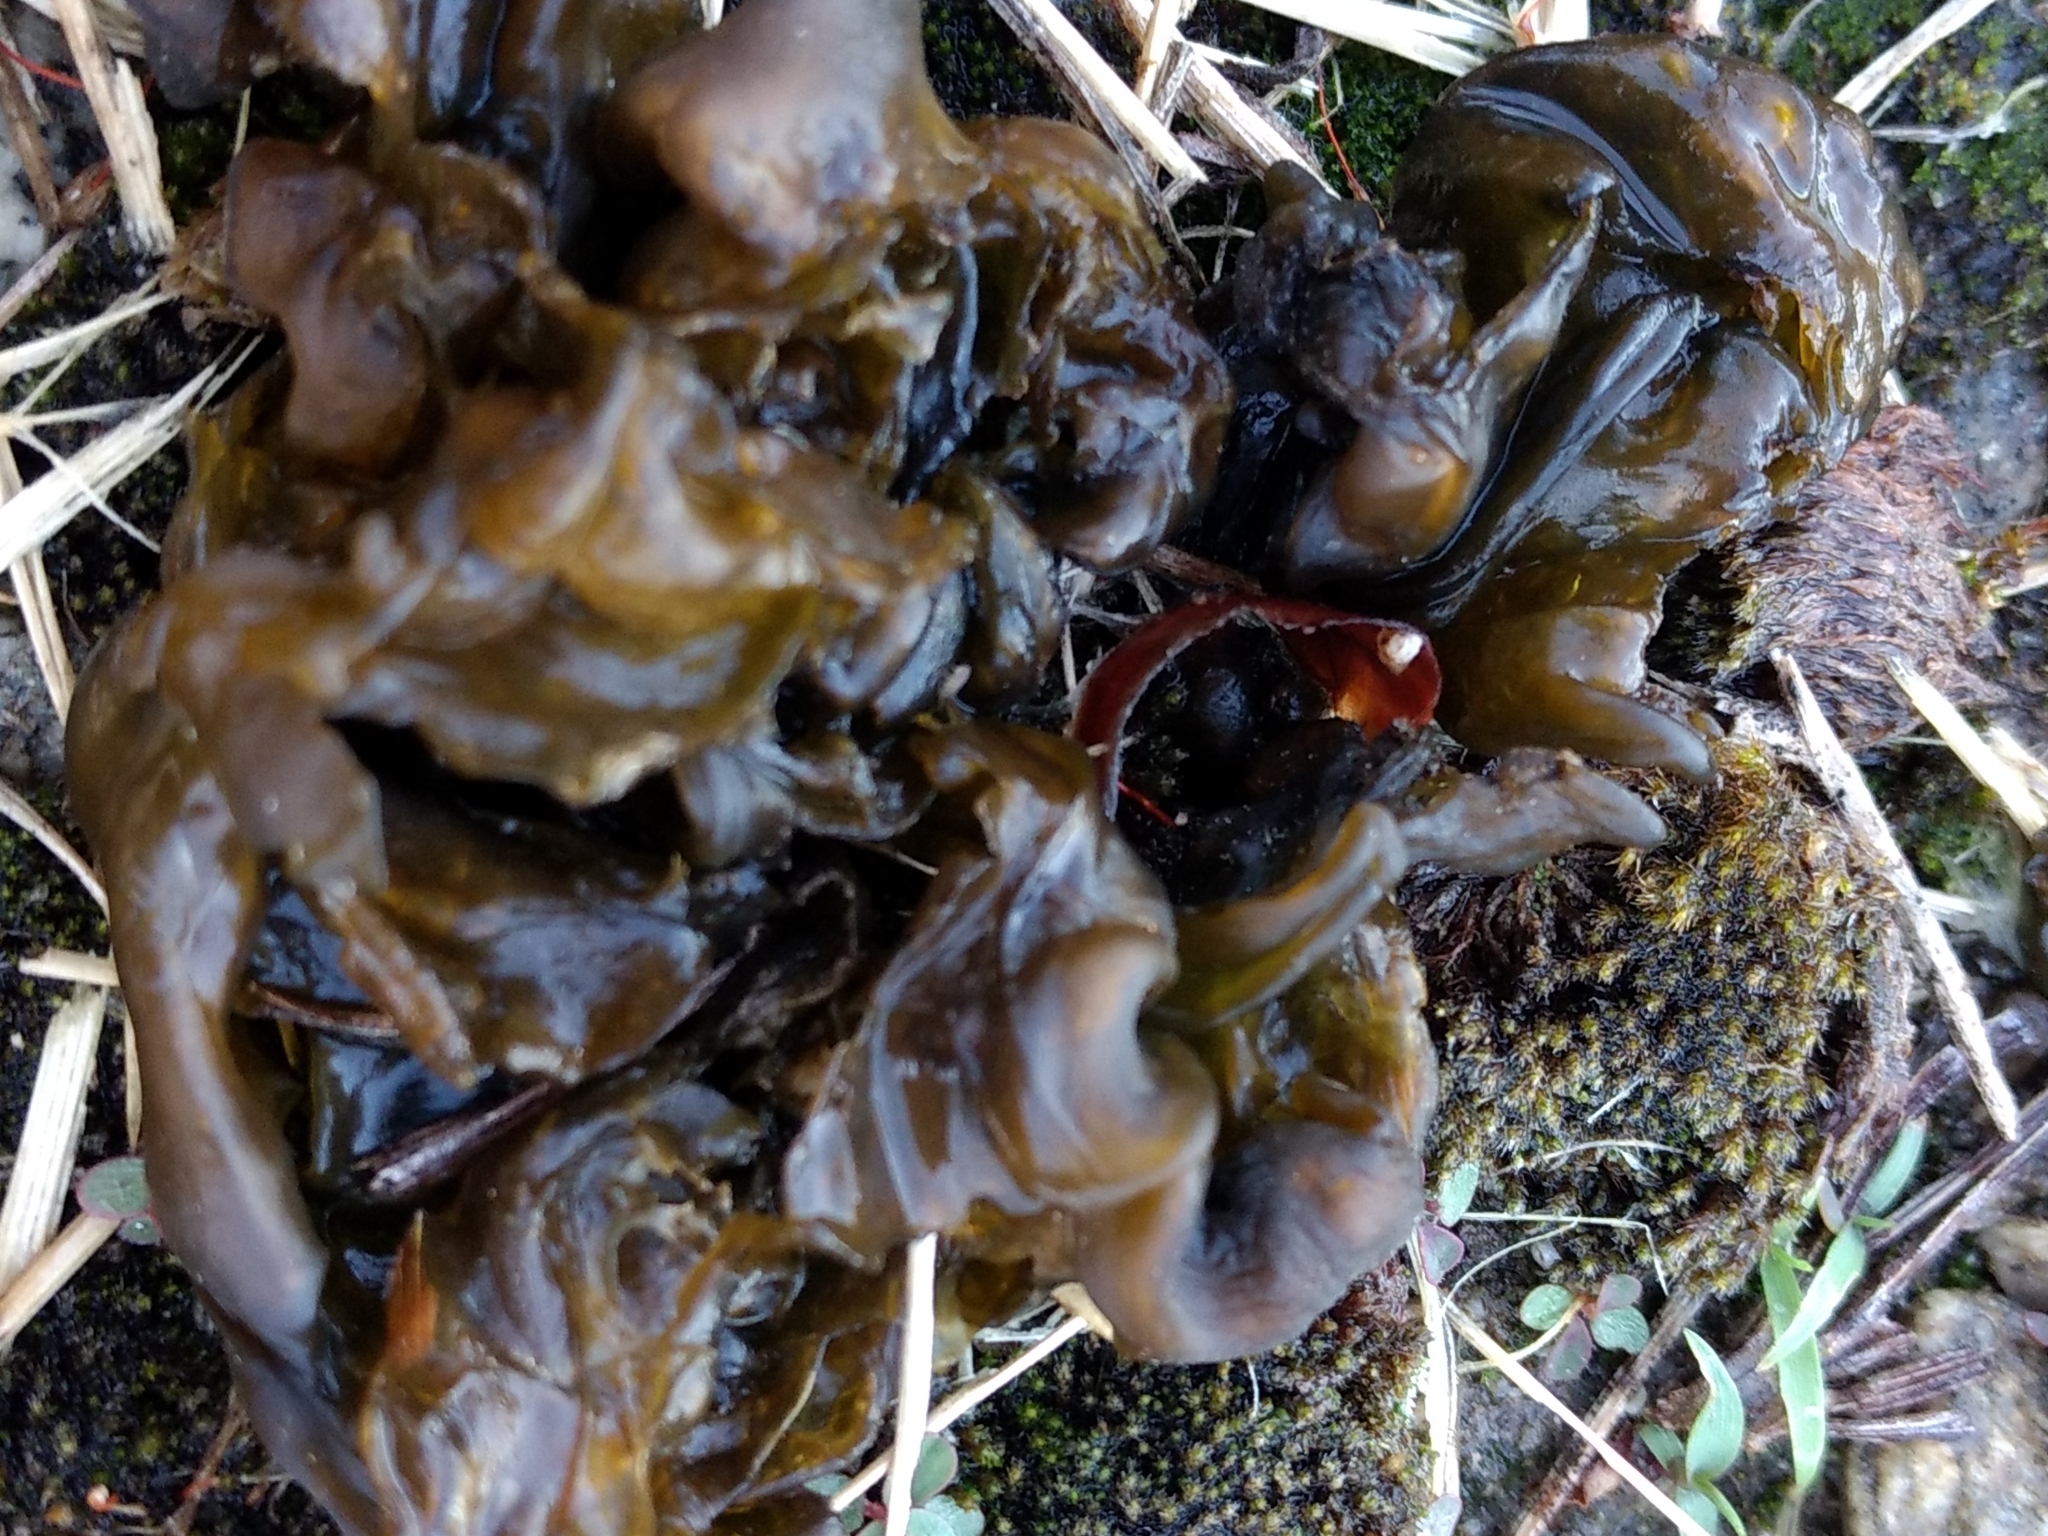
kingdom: Bacteria
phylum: Cyanobacteria
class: Cyanobacteriia
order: Cyanobacteriales
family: Nostocaceae
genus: Nostoc
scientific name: Nostoc commune
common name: Star jelly
